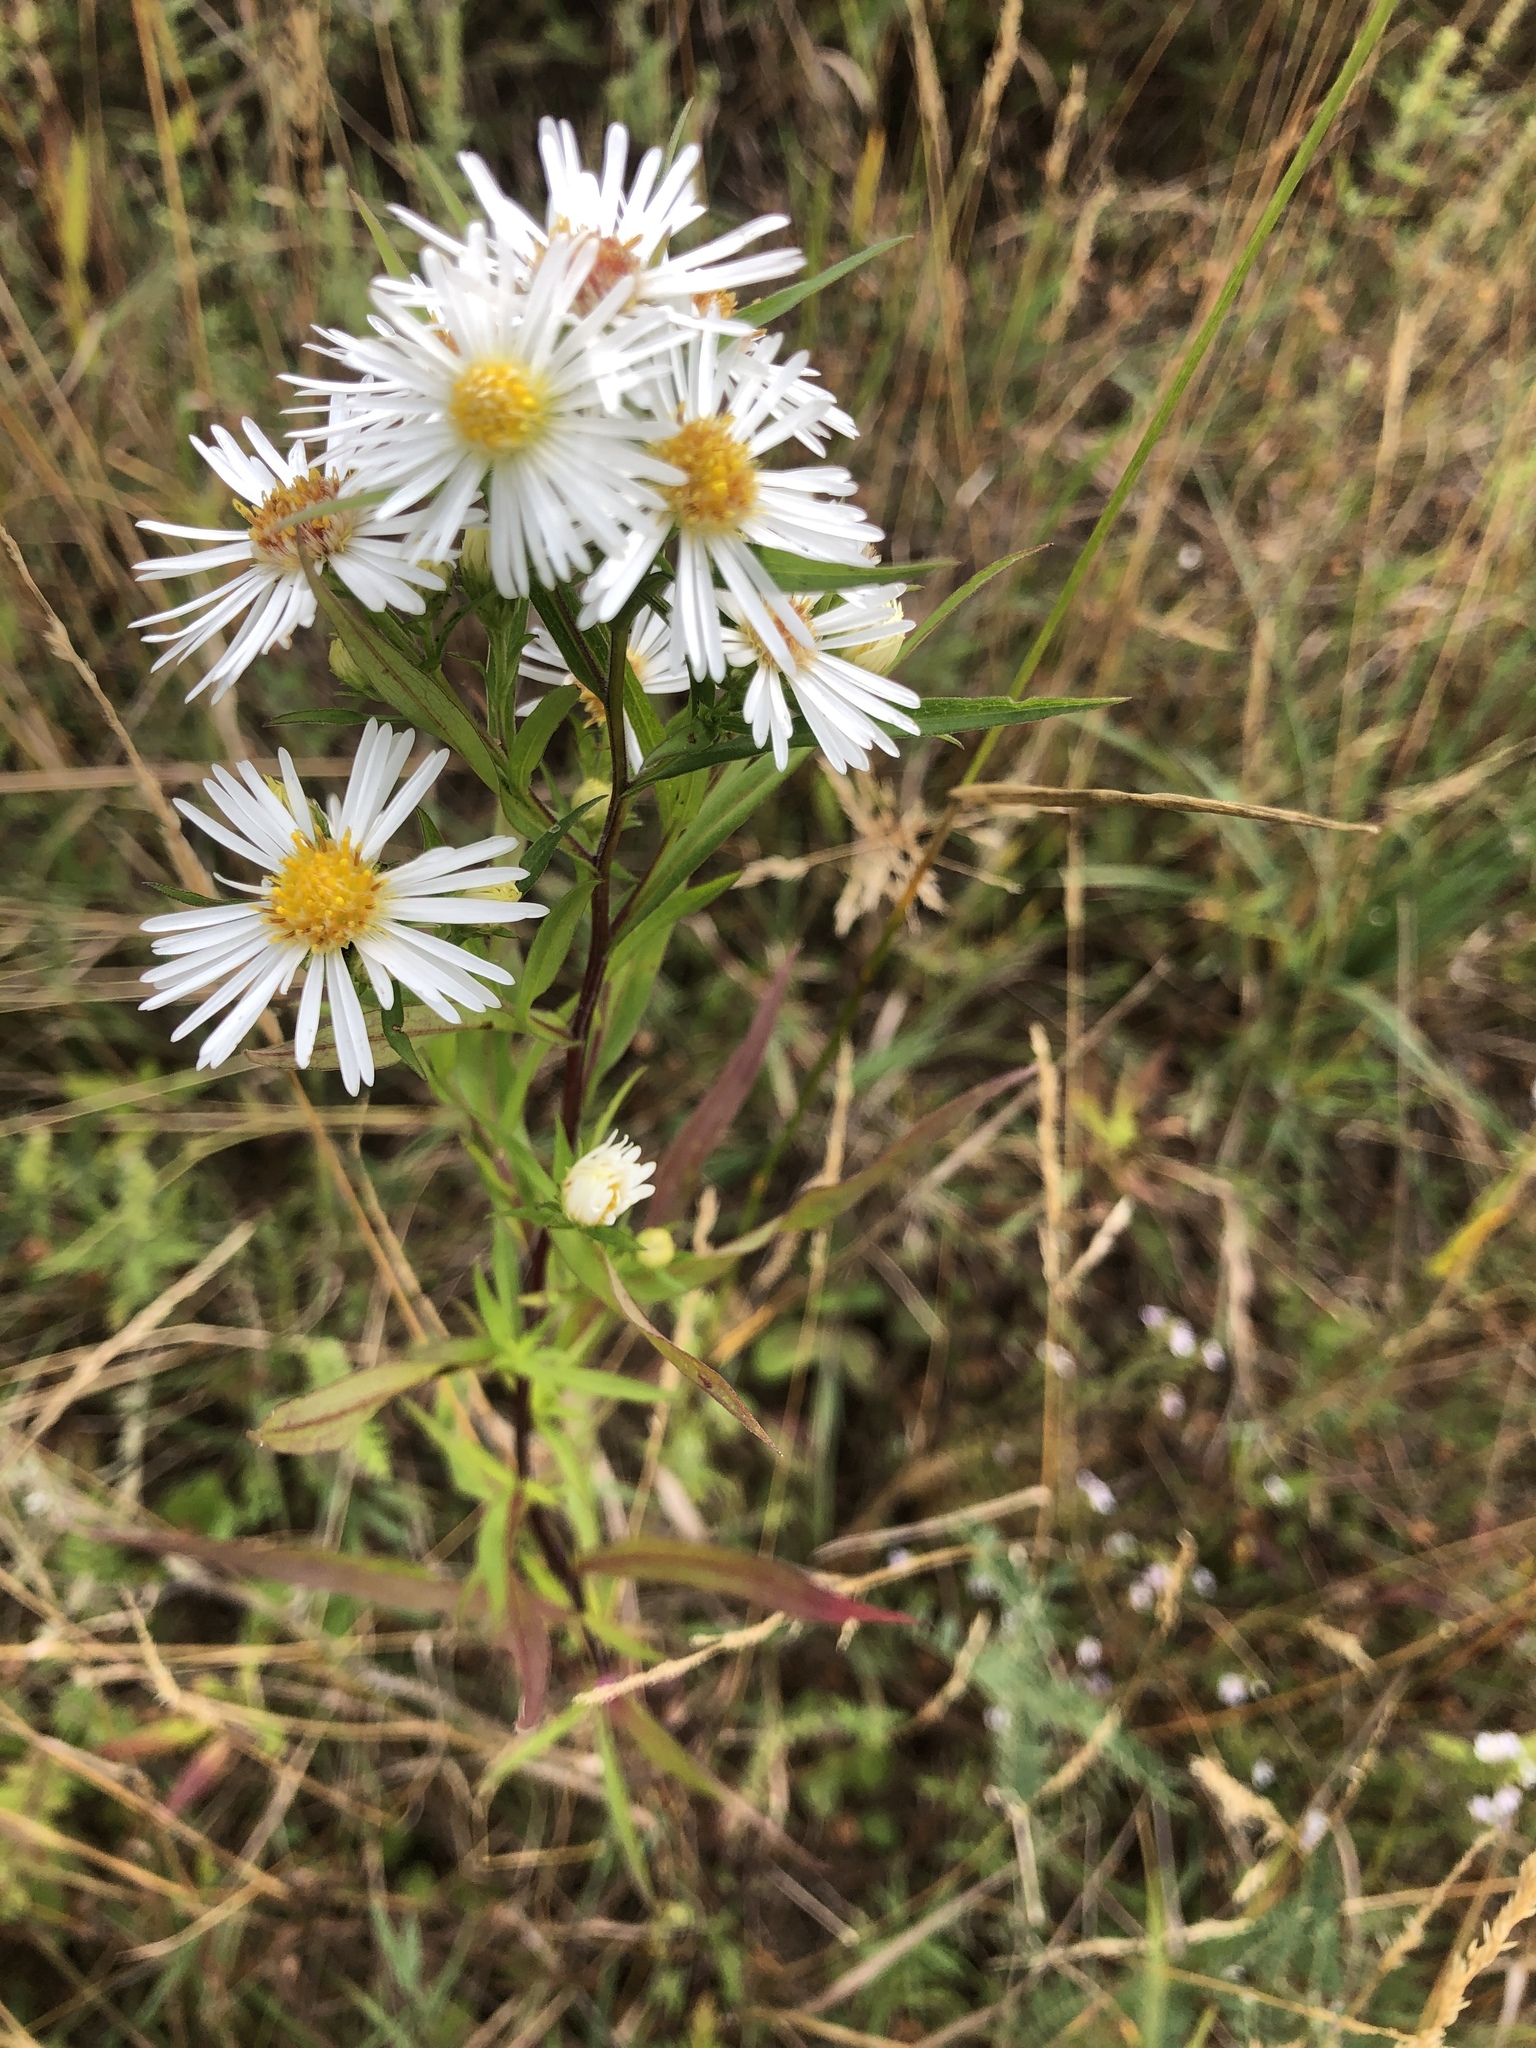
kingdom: Plantae
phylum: Tracheophyta
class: Magnoliopsida
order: Asterales
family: Asteraceae
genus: Symphyotrichum
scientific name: Symphyotrichum lanceolatum
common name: Panicled aster
